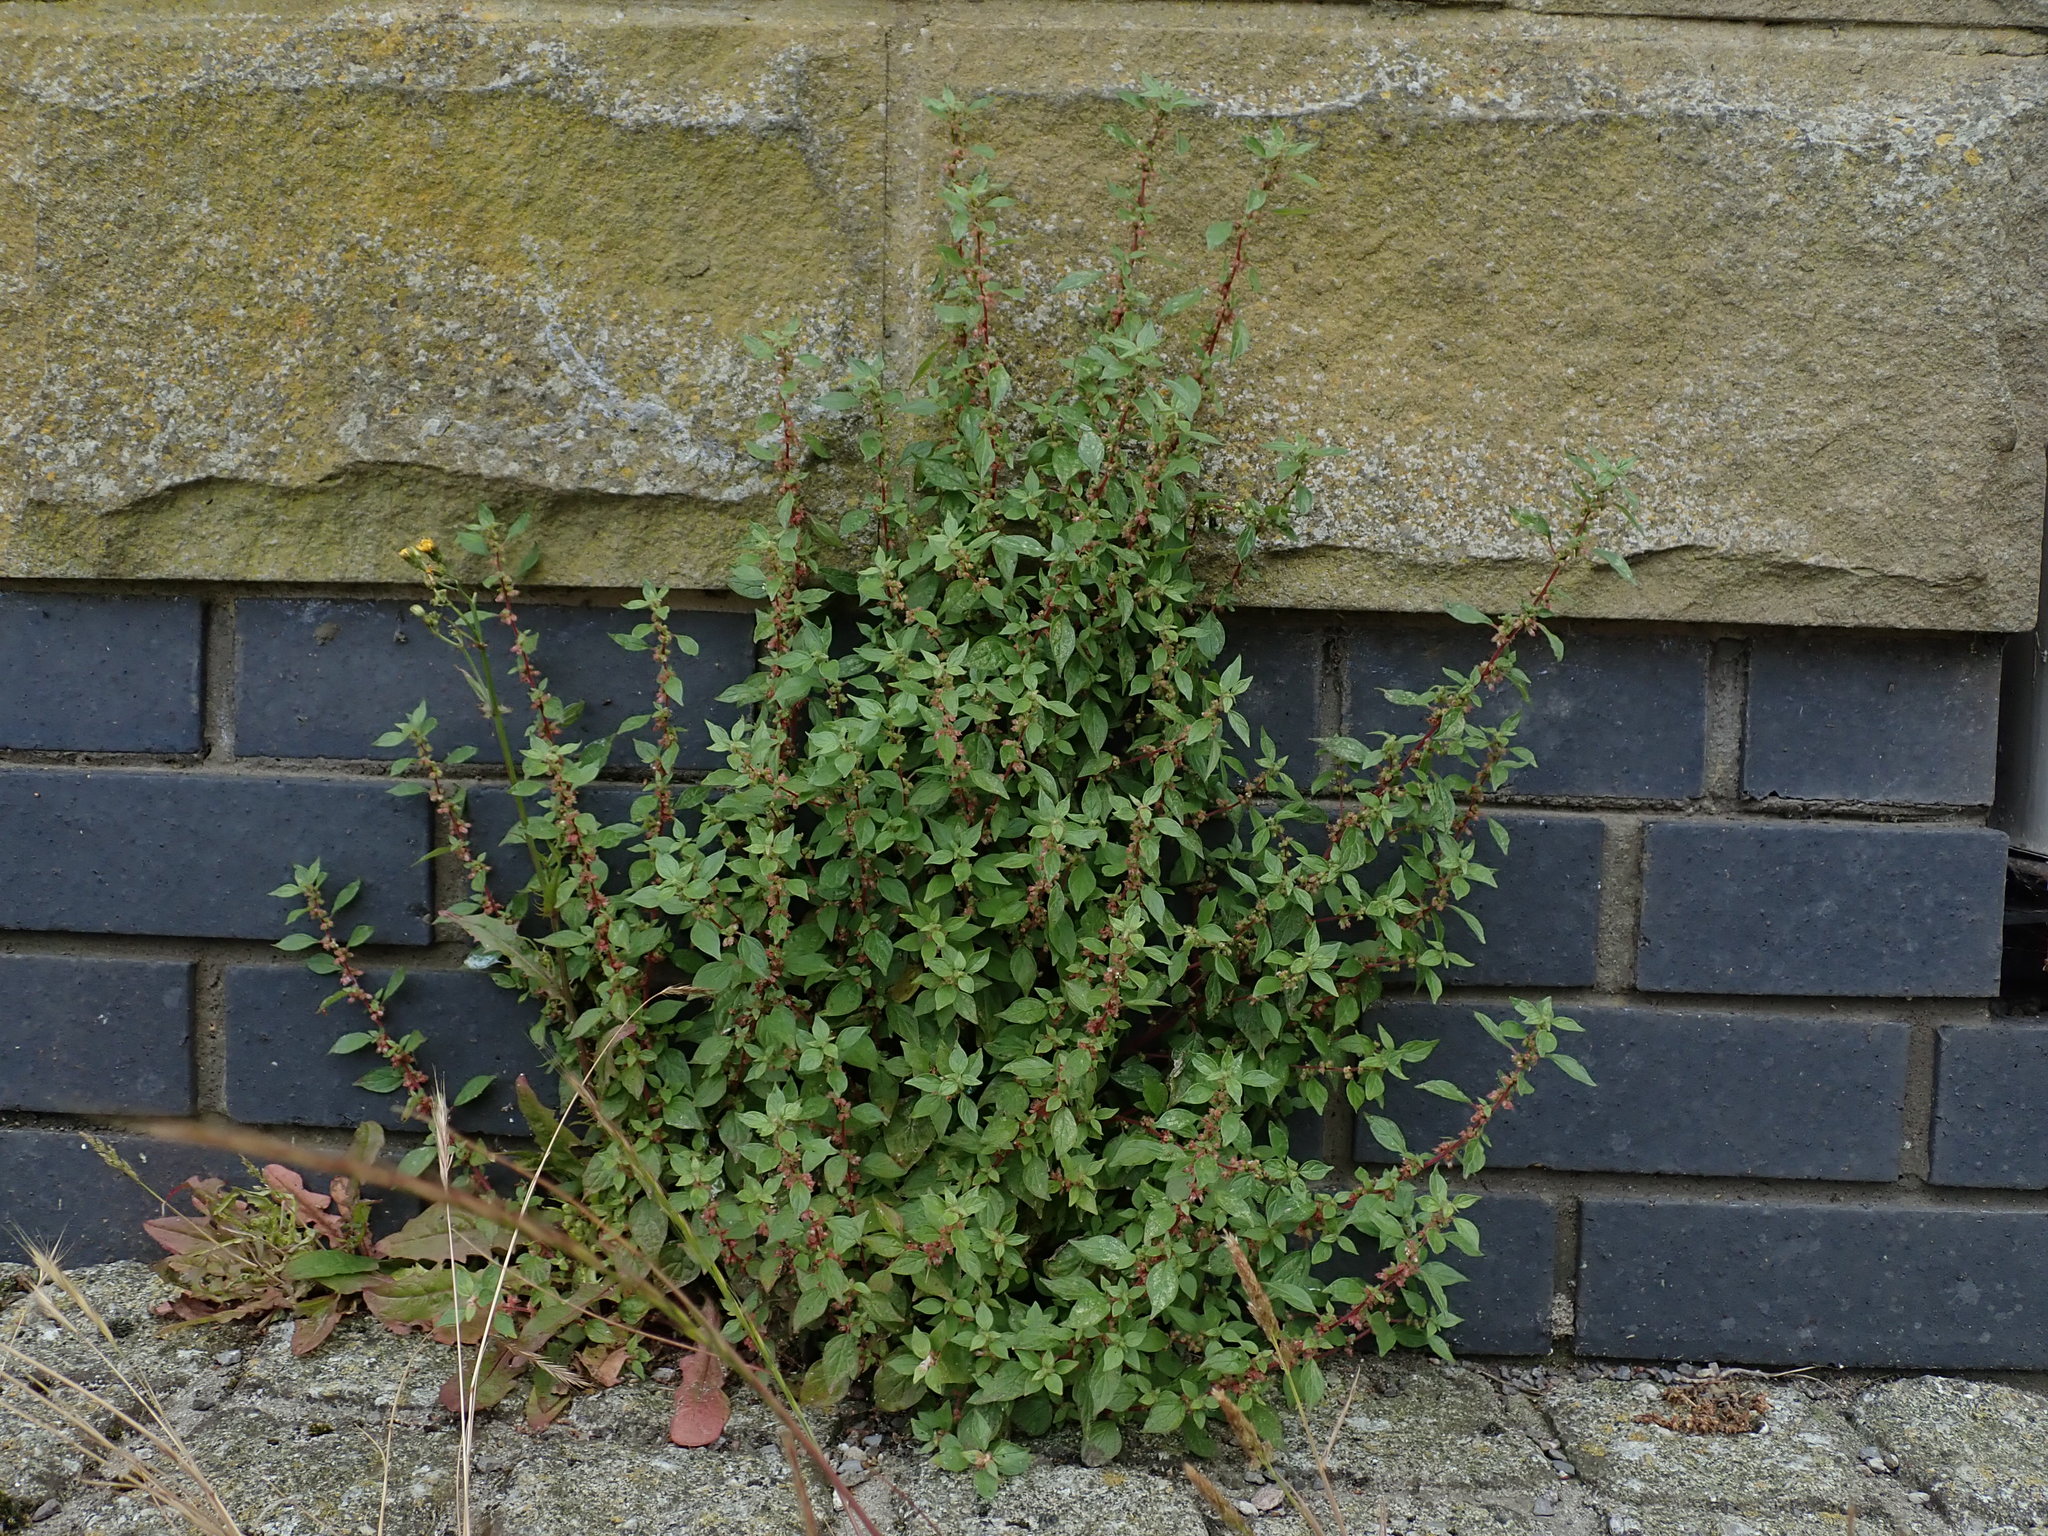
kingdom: Plantae
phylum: Tracheophyta
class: Magnoliopsida
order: Rosales
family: Urticaceae
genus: Parietaria
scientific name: Parietaria judaica
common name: Pellitory-of-the-wall
